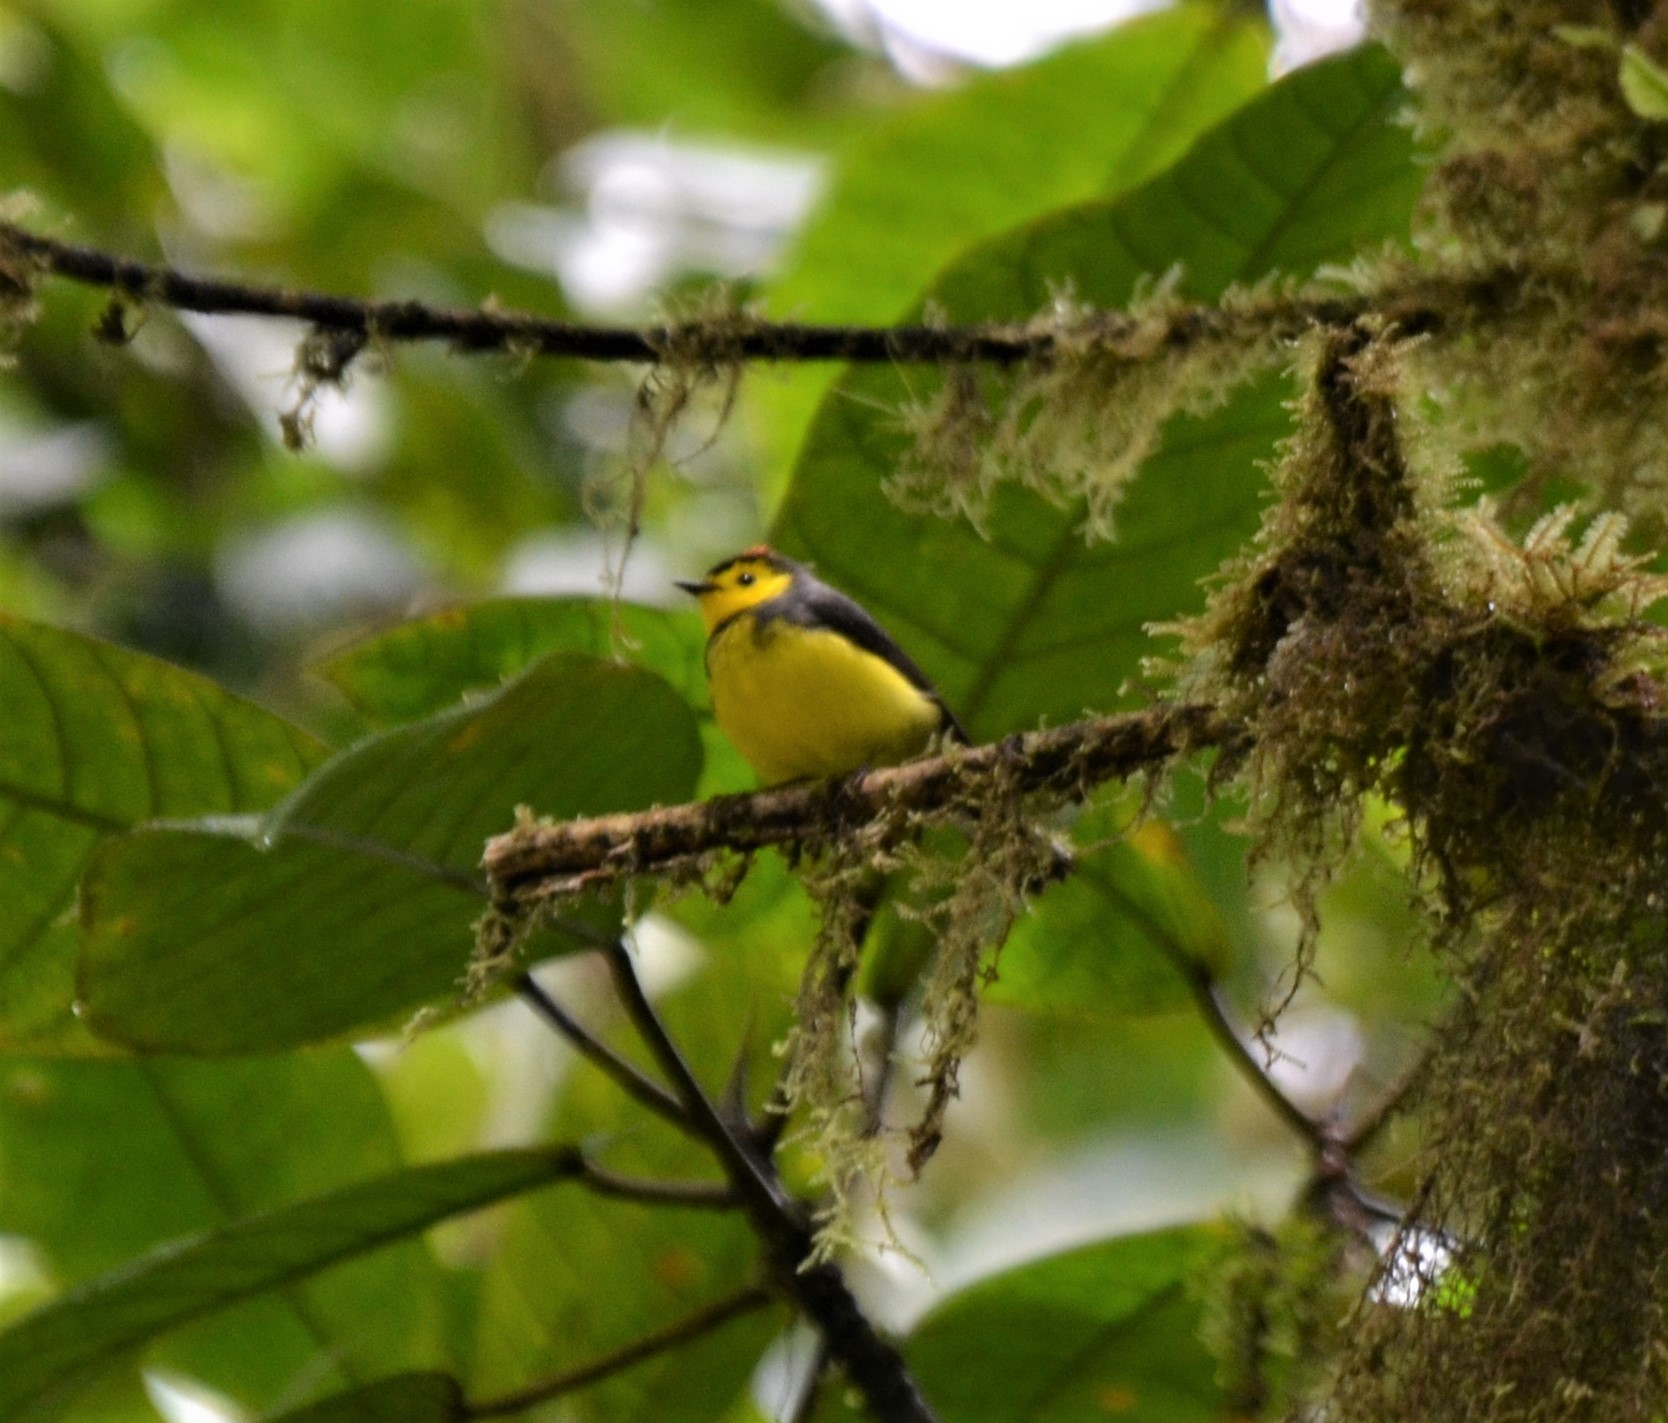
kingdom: Animalia
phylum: Chordata
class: Aves
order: Passeriformes
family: Parulidae
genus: Myioborus
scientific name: Myioborus torquatus
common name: Collared whitestart
